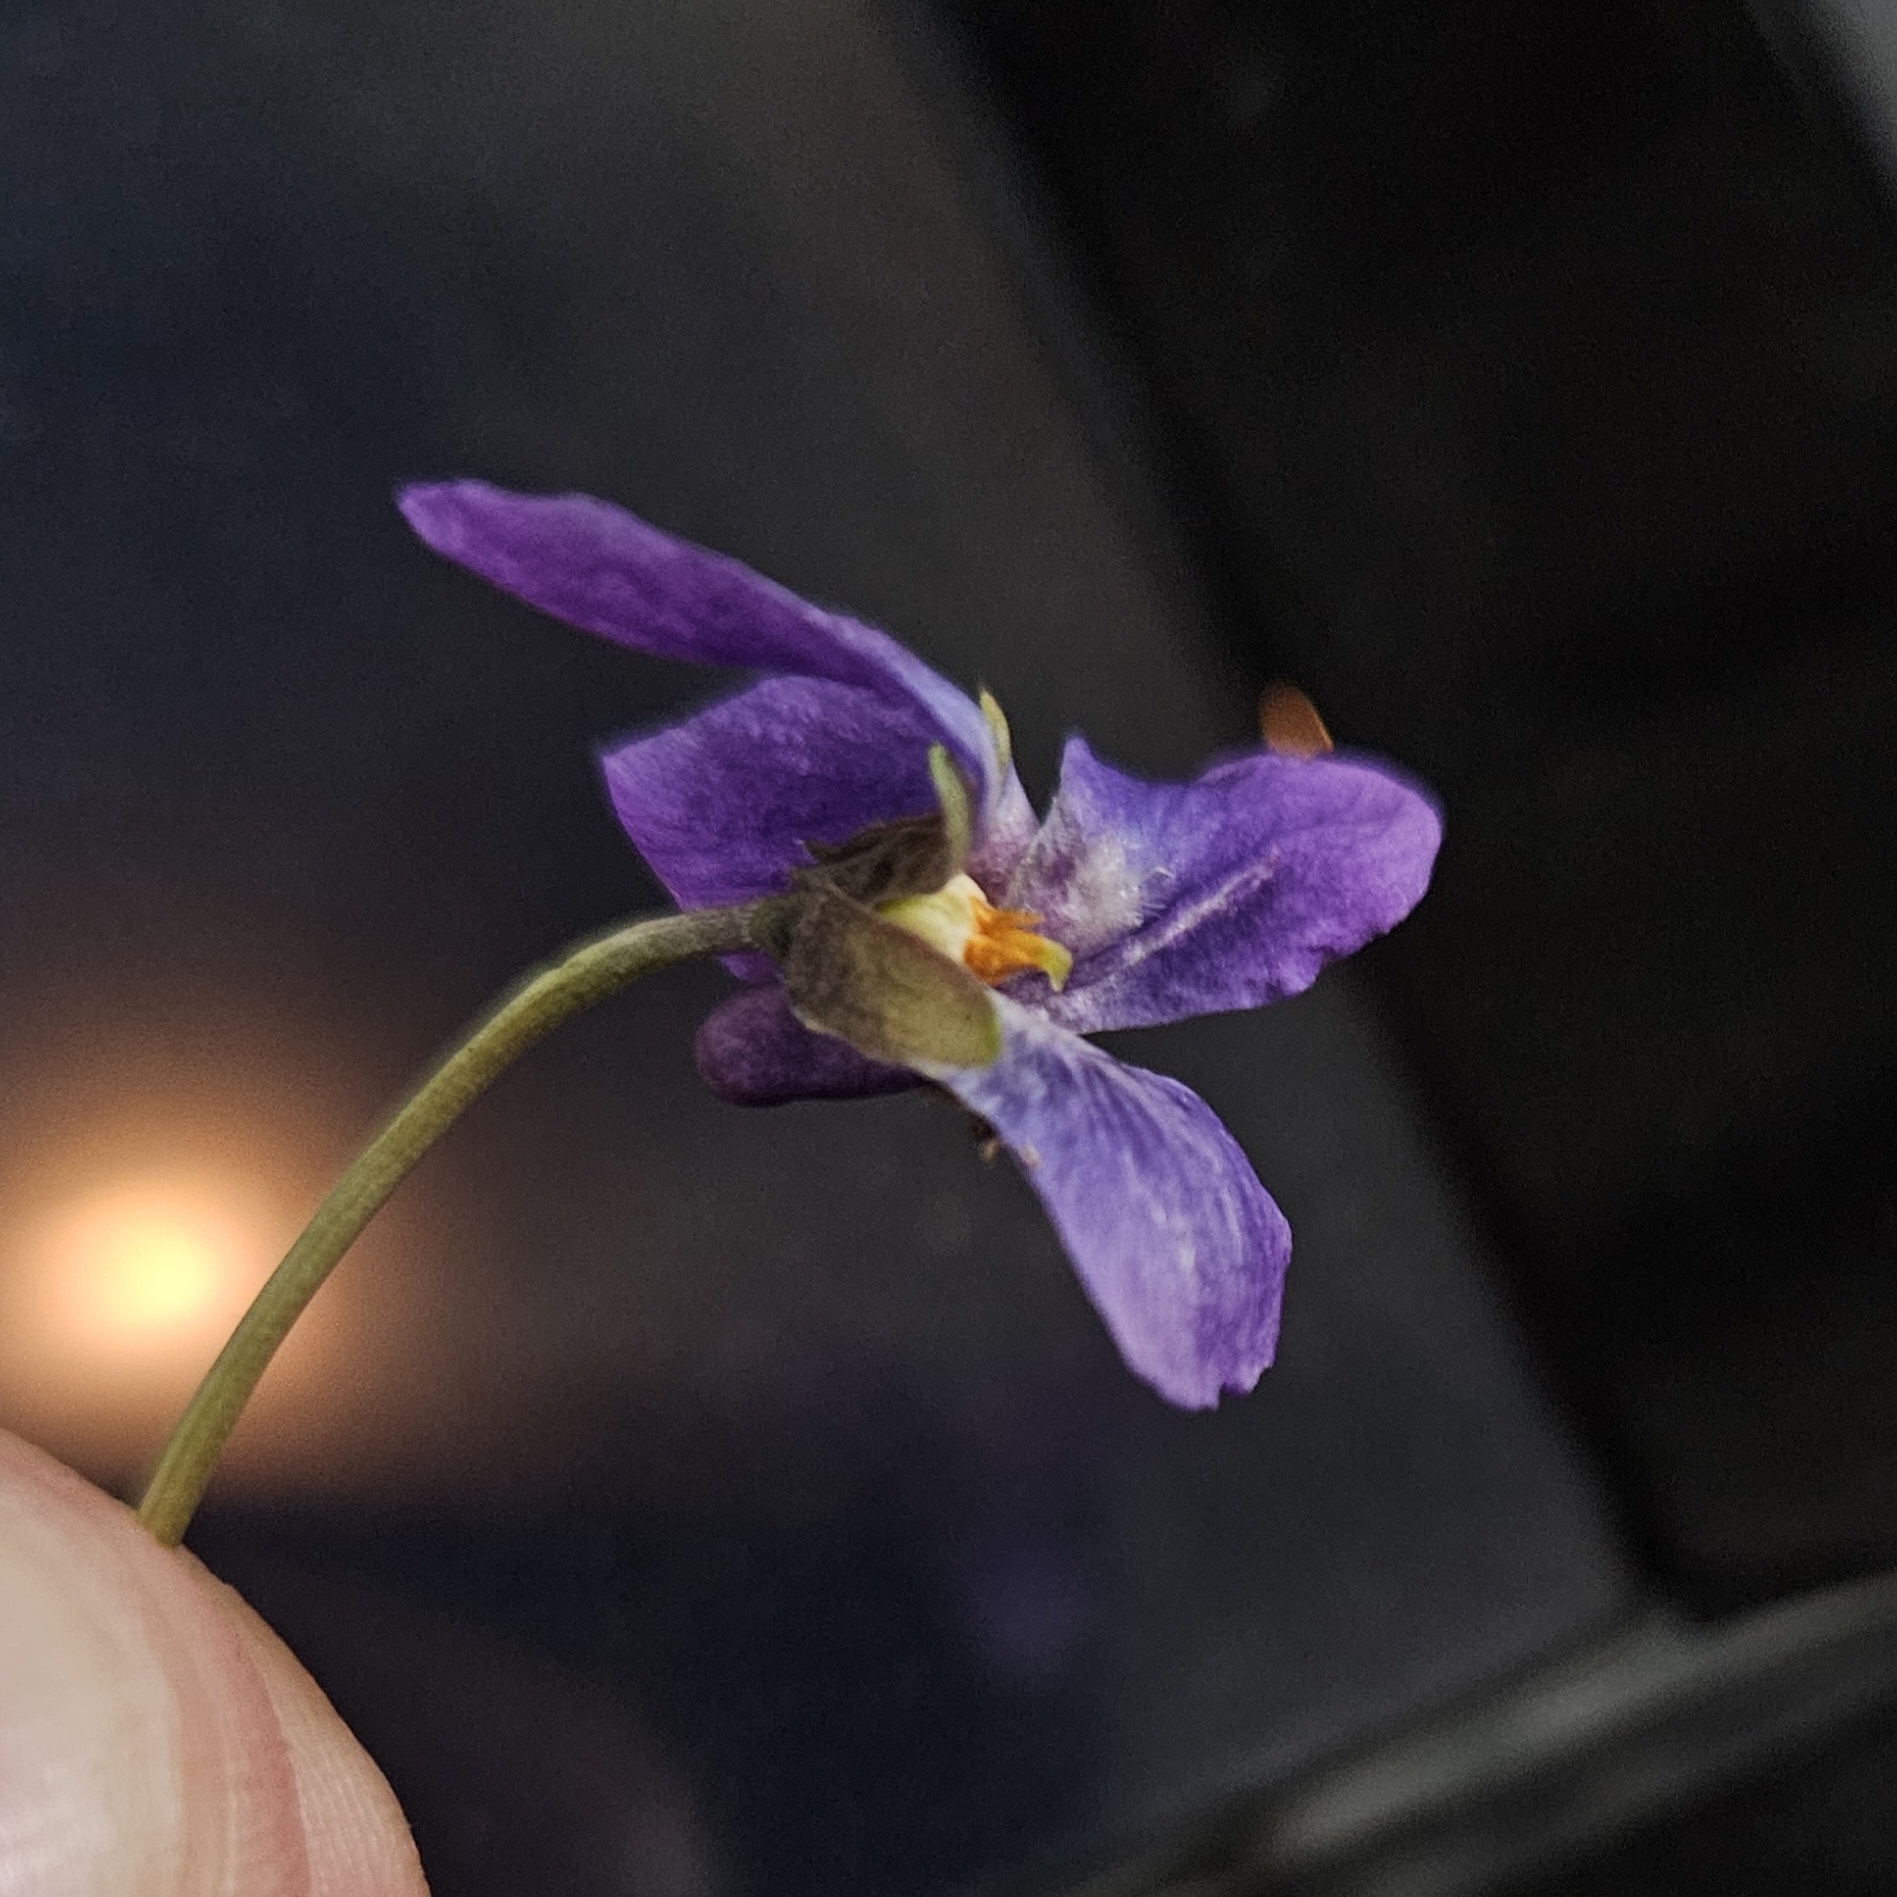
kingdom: Plantae
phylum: Tracheophyta
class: Magnoliopsida
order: Malpighiales
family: Violaceae
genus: Viola
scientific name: Viola odorata
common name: Sweet violet
